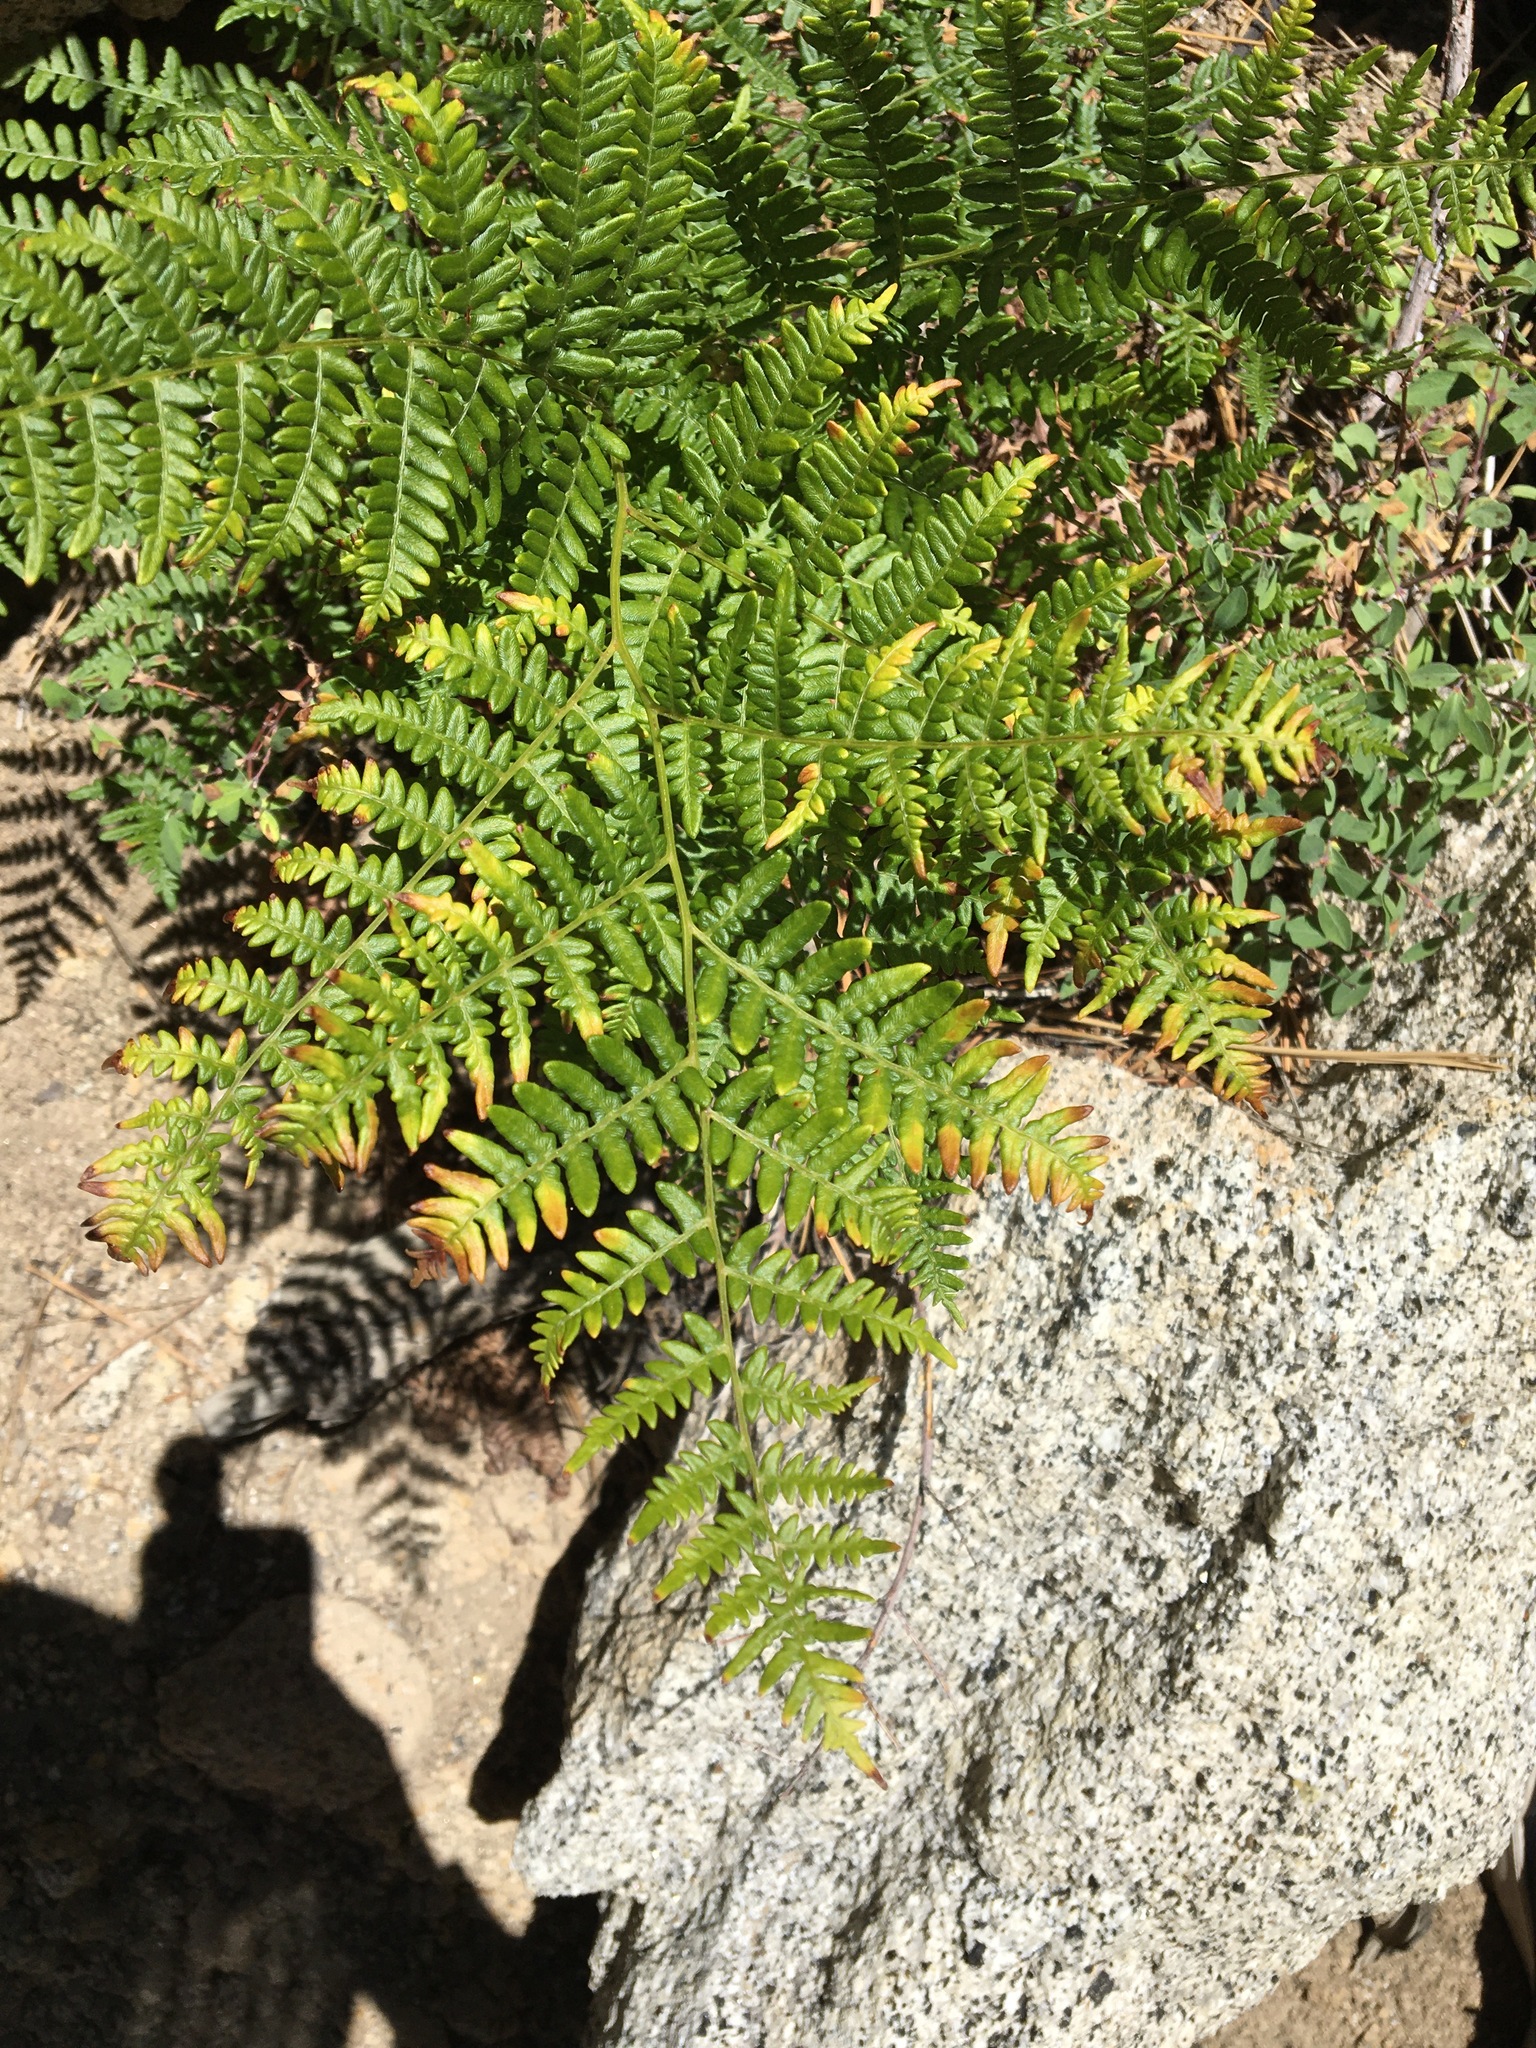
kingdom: Plantae
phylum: Tracheophyta
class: Polypodiopsida
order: Polypodiales
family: Dennstaedtiaceae
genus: Pteridium
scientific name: Pteridium aquilinum
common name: Bracken
